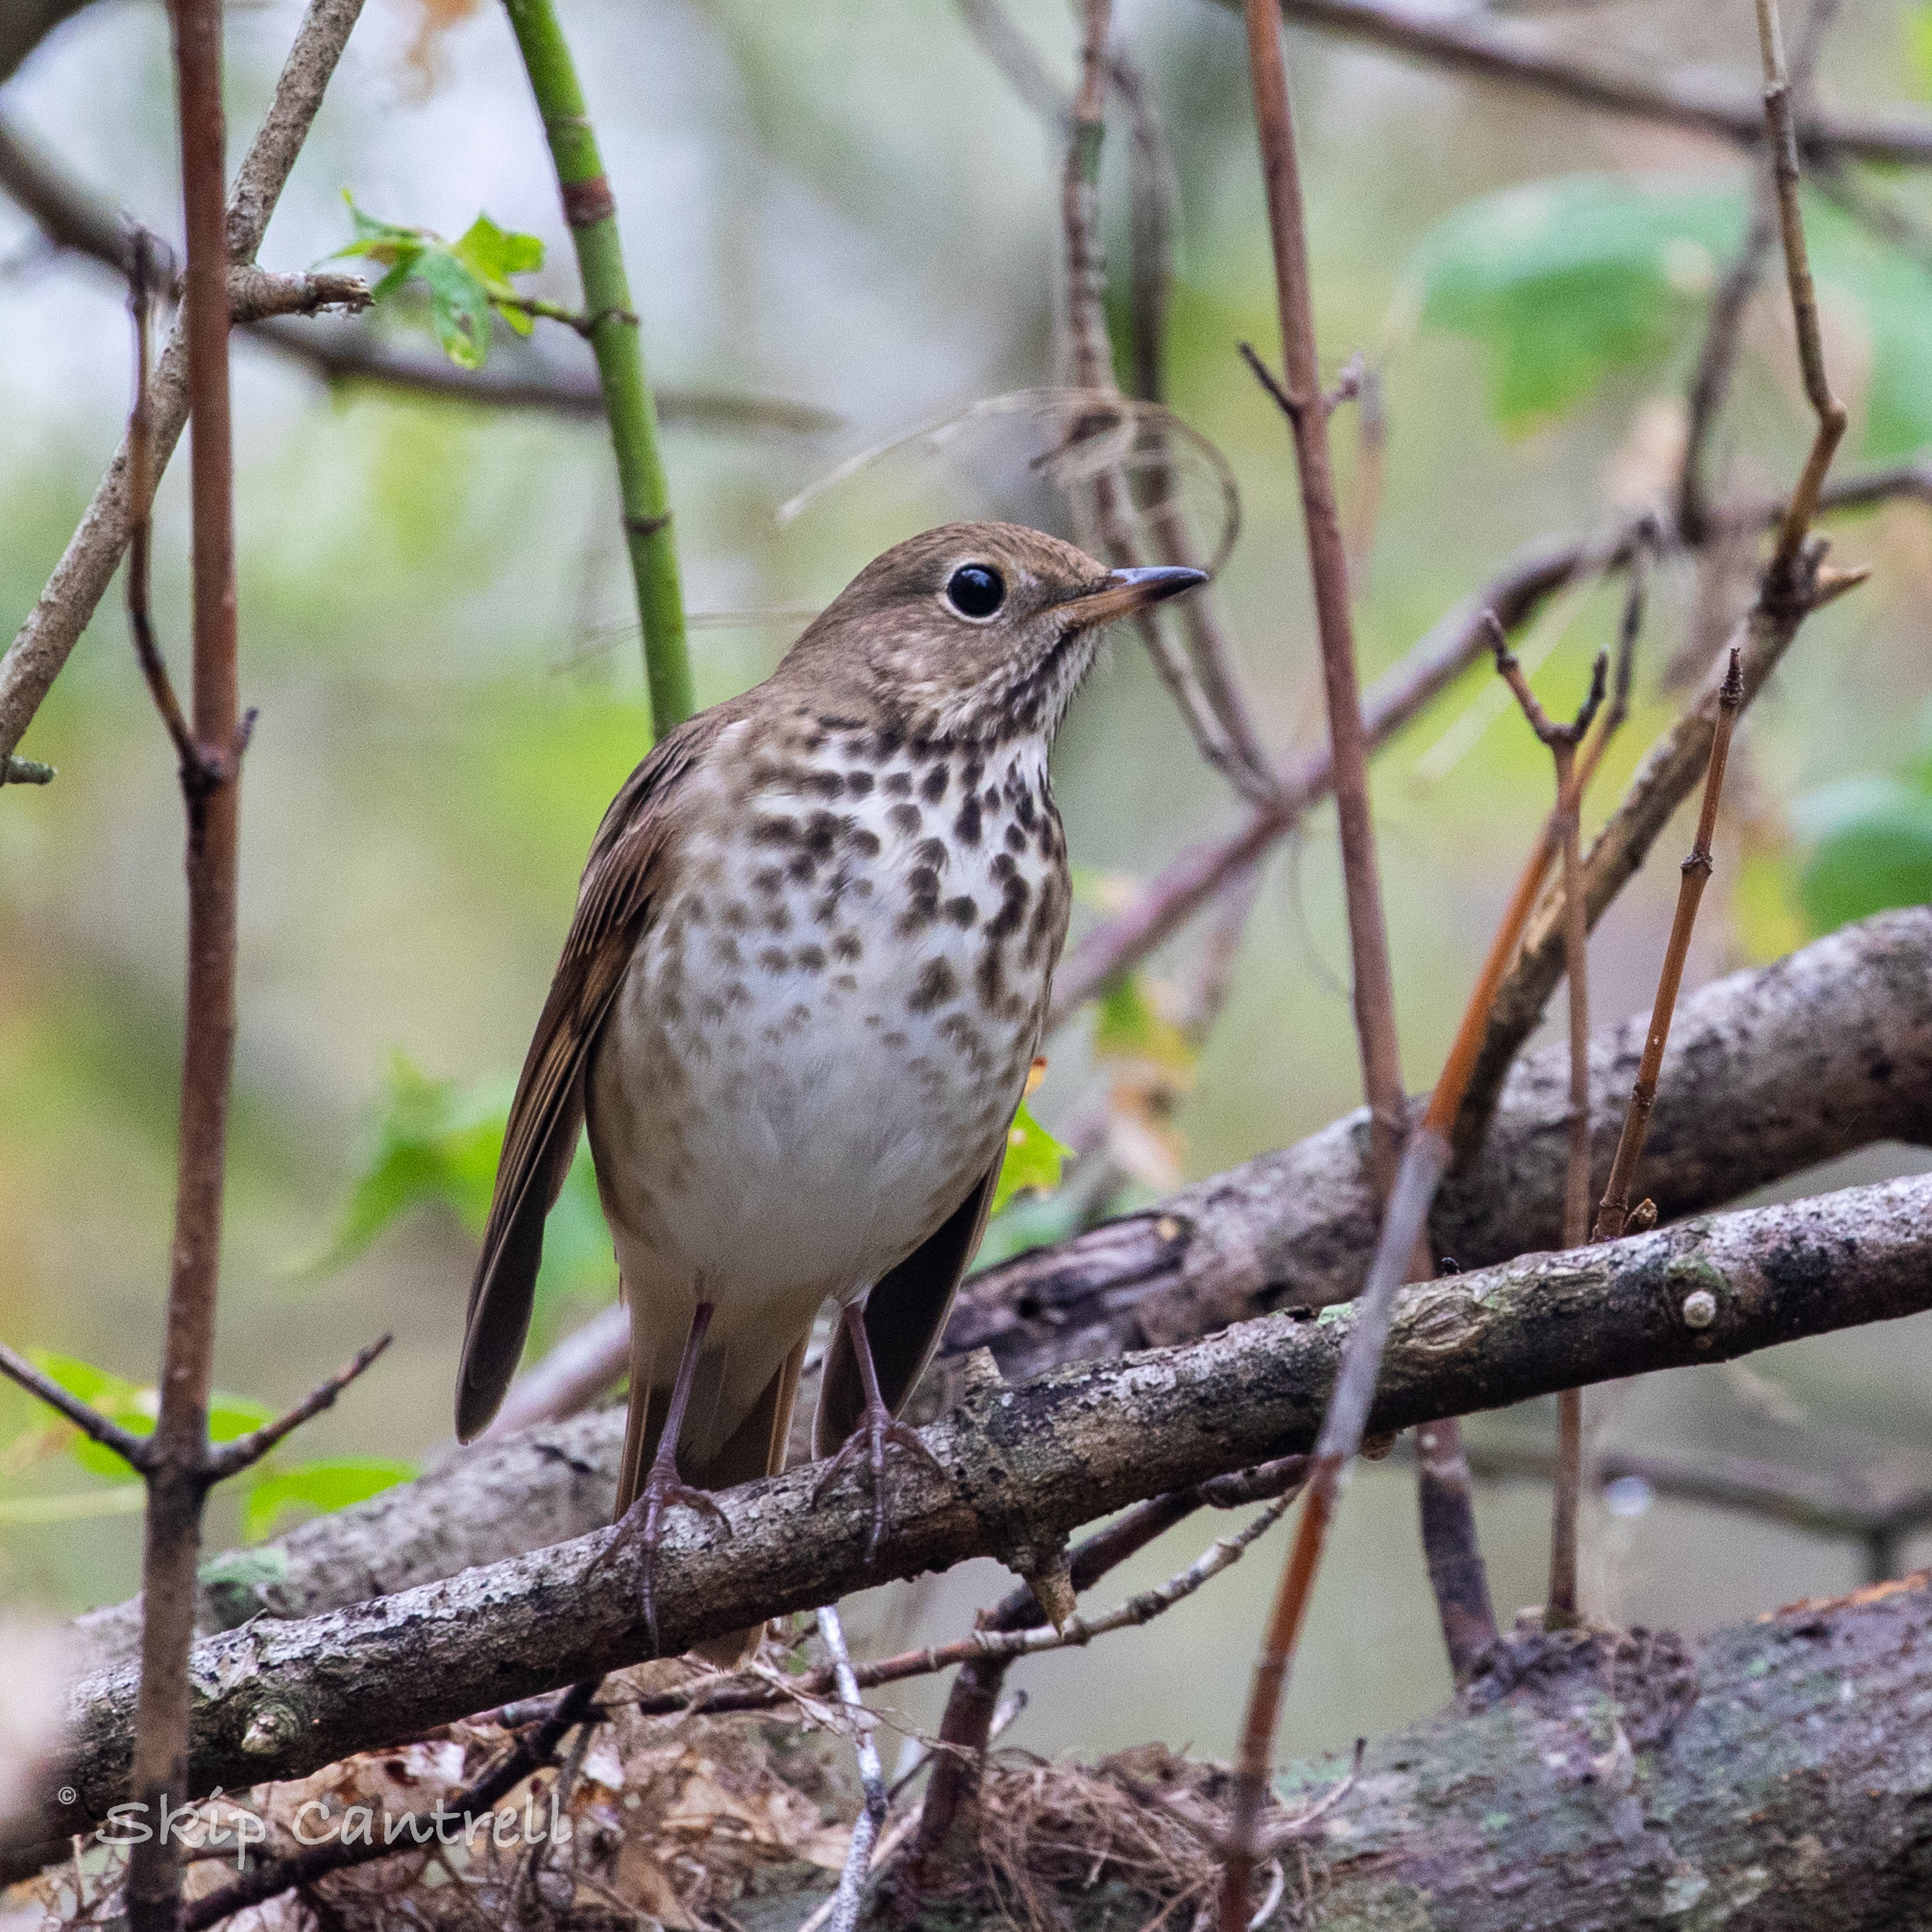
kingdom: Animalia
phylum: Chordata
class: Aves
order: Passeriformes
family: Turdidae
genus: Catharus
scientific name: Catharus guttatus
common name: Hermit thrush
